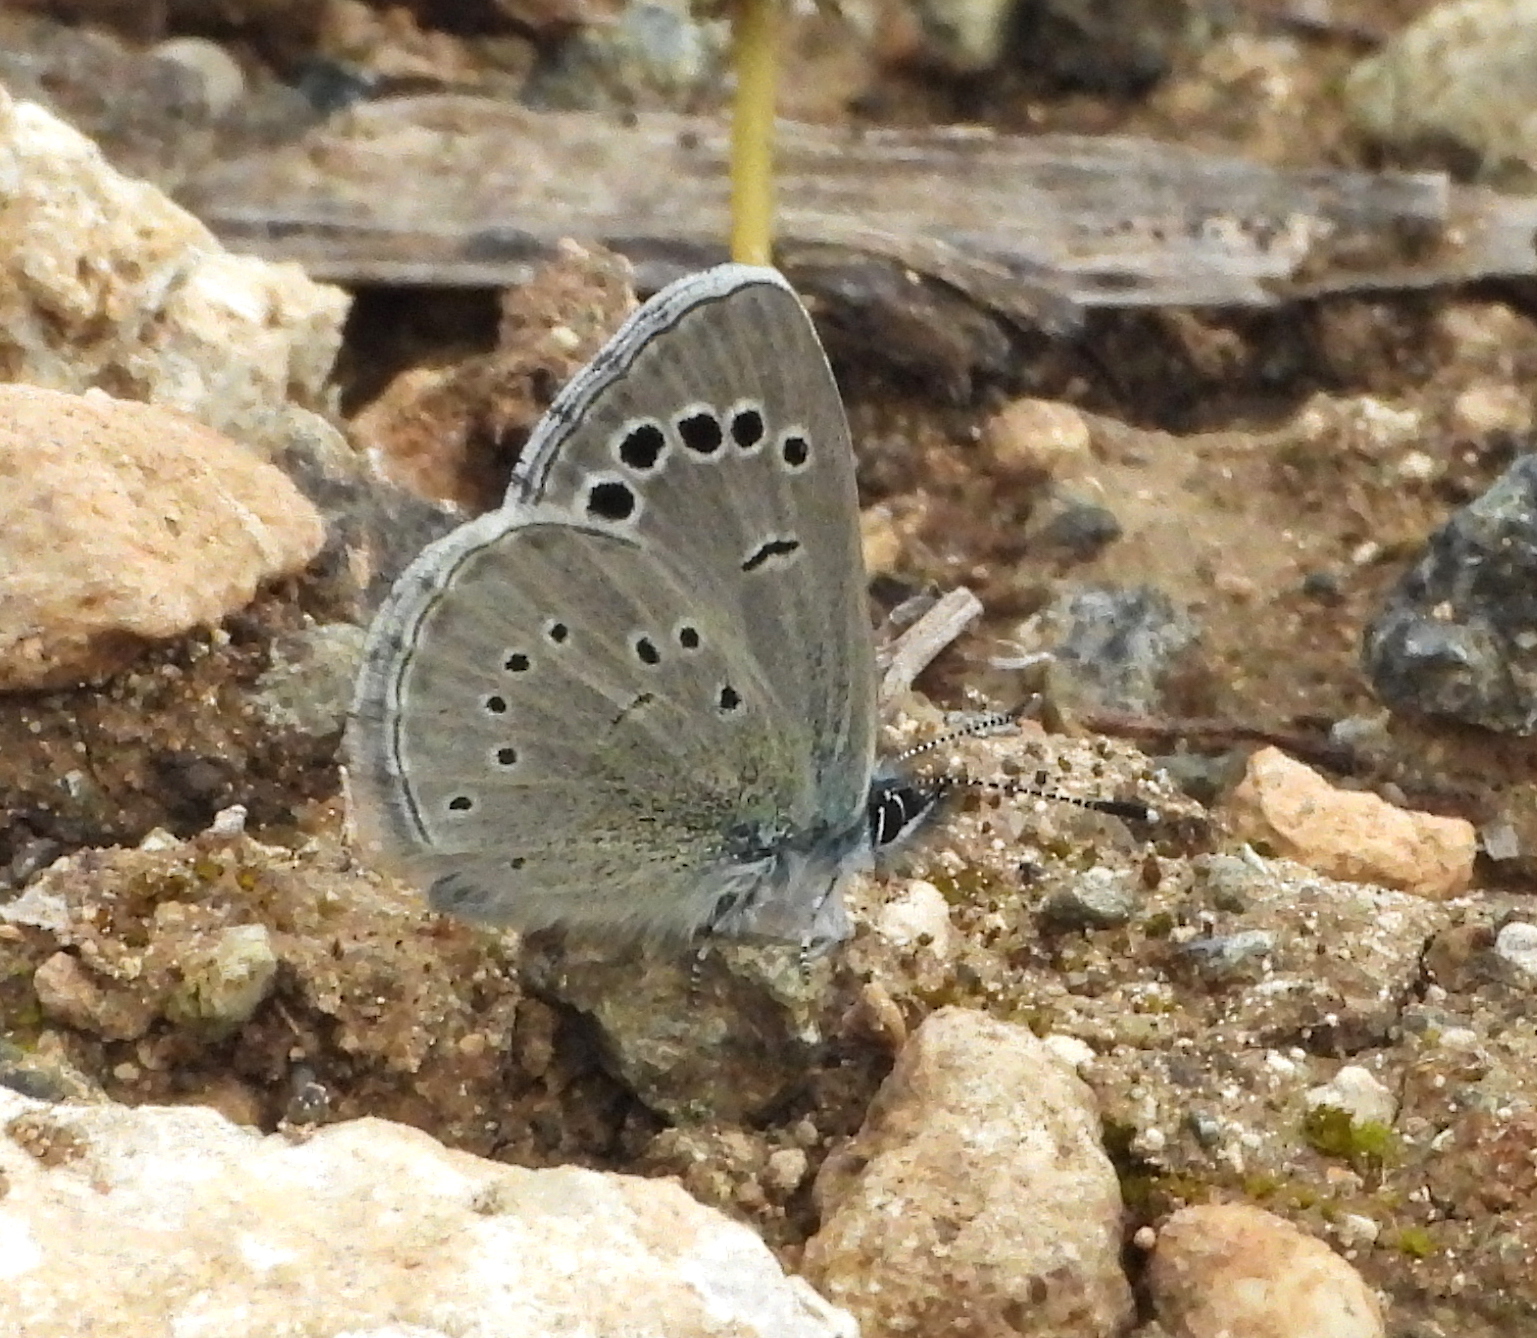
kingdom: Animalia
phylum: Arthropoda
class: Insecta
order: Lepidoptera
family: Lycaenidae
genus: Glaucopsyche
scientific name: Glaucopsyche paphos
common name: Paphos blue
